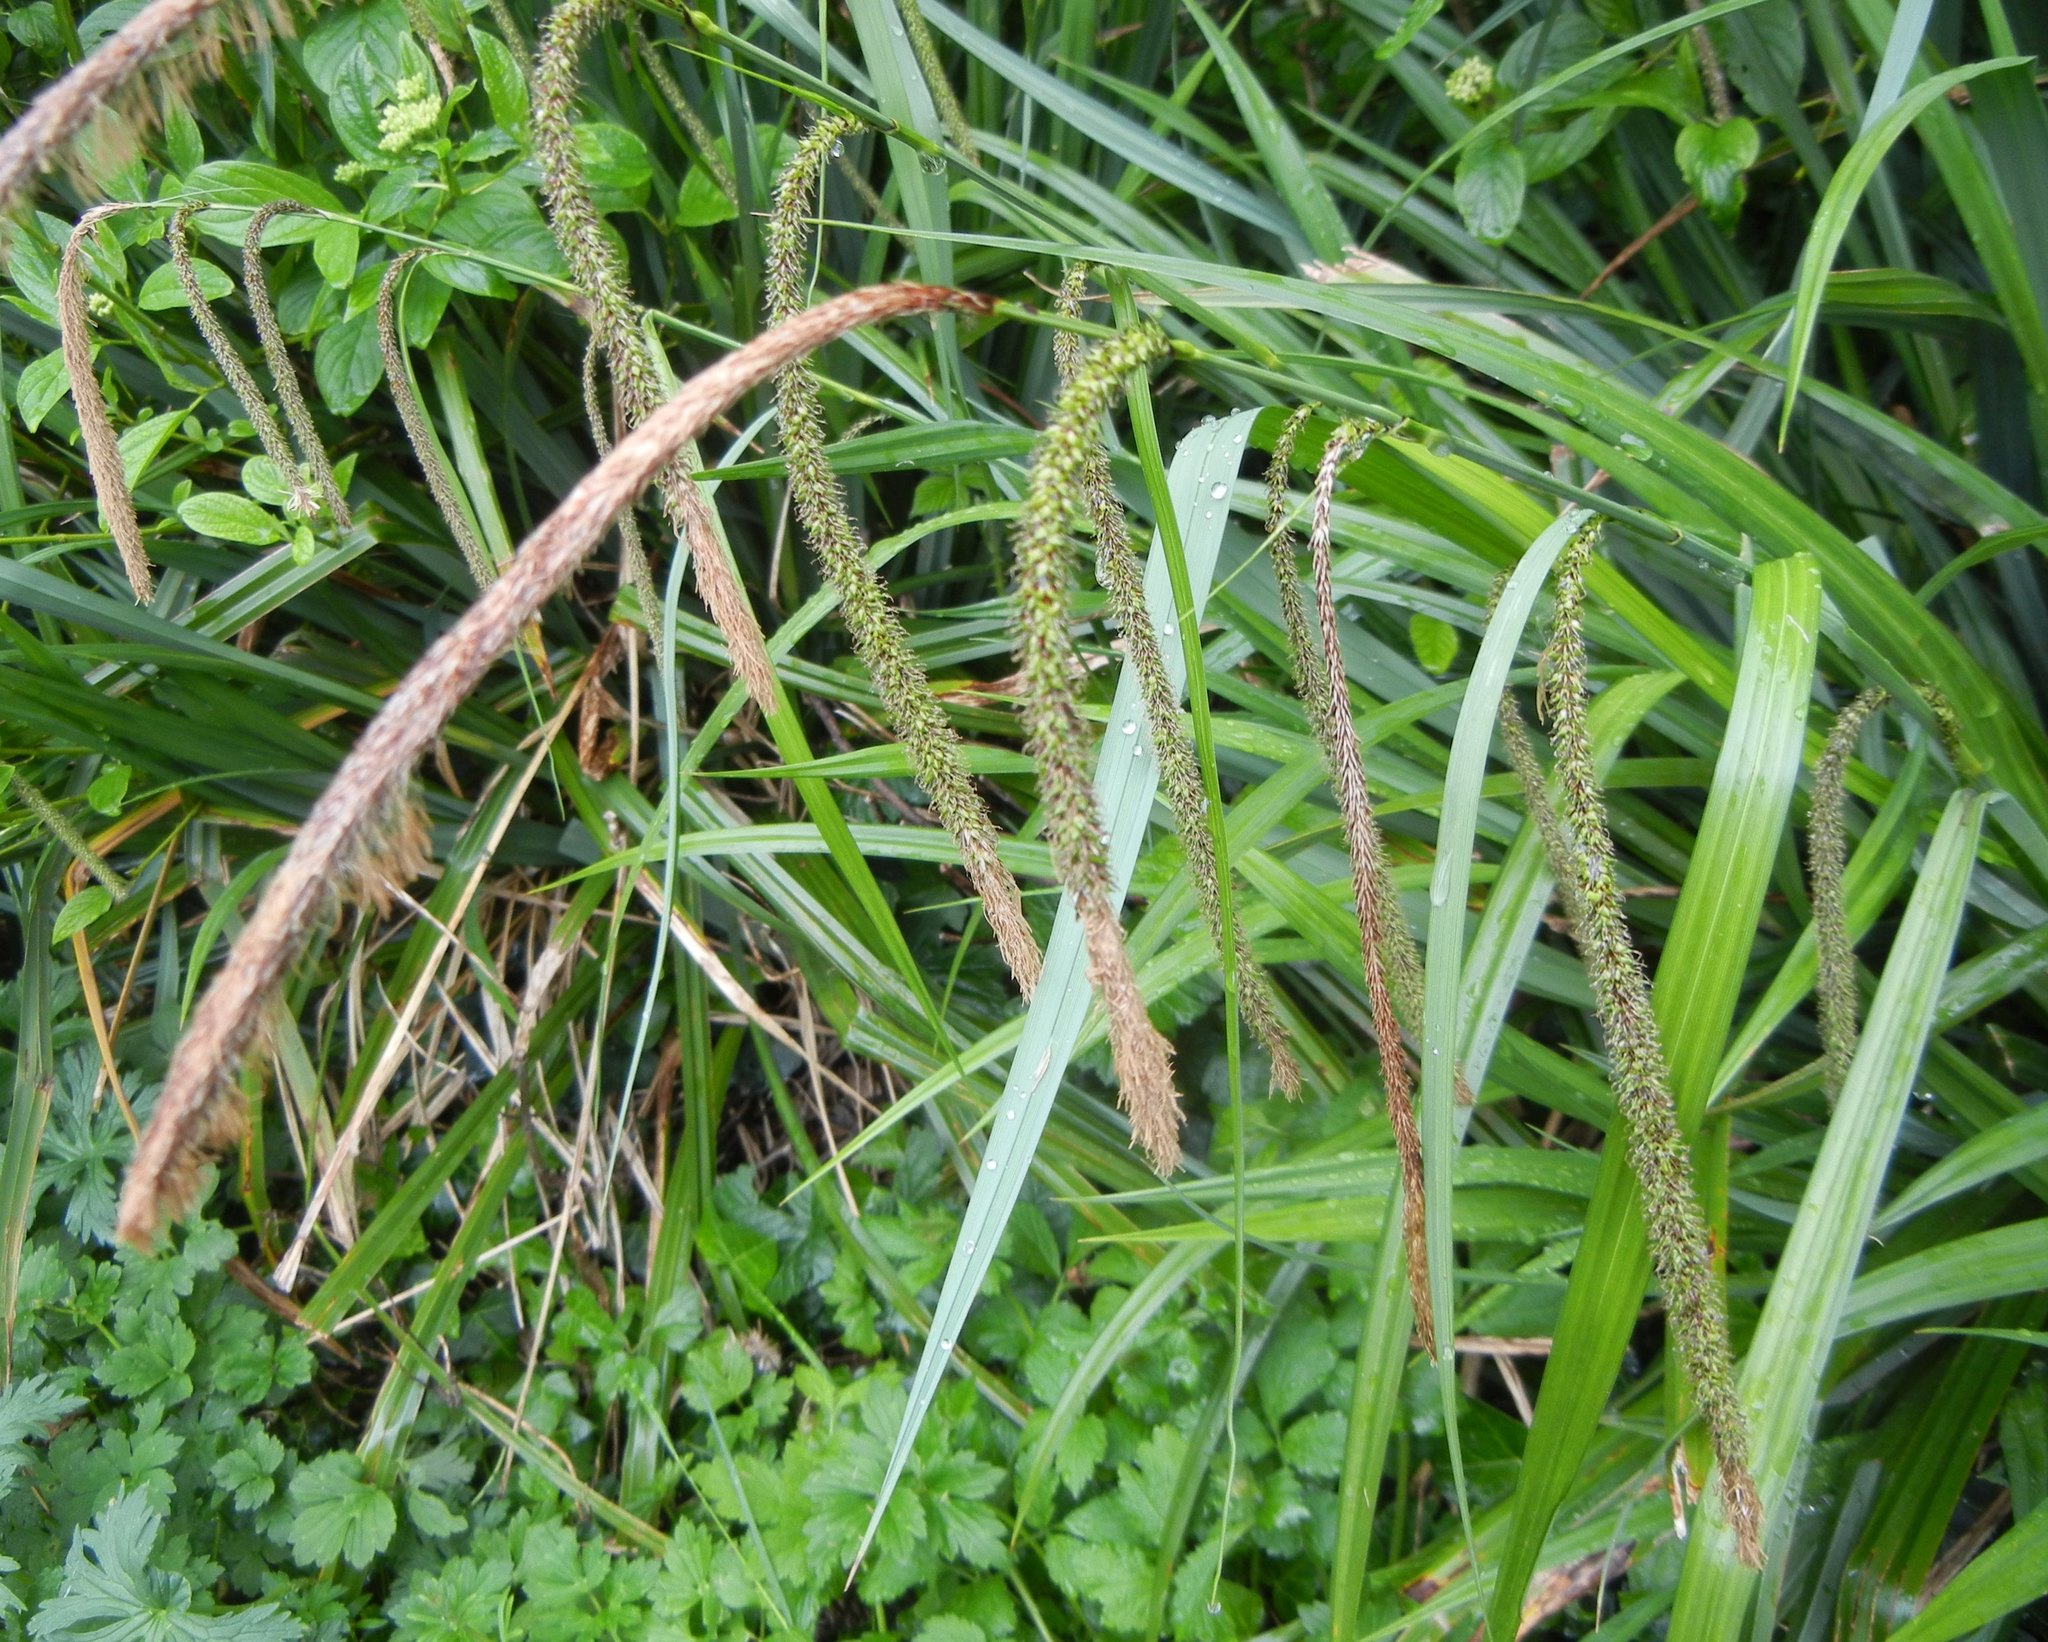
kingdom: Plantae
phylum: Tracheophyta
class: Liliopsida
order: Poales
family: Cyperaceae
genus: Carex
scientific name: Carex pendula
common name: Pendulous sedge
